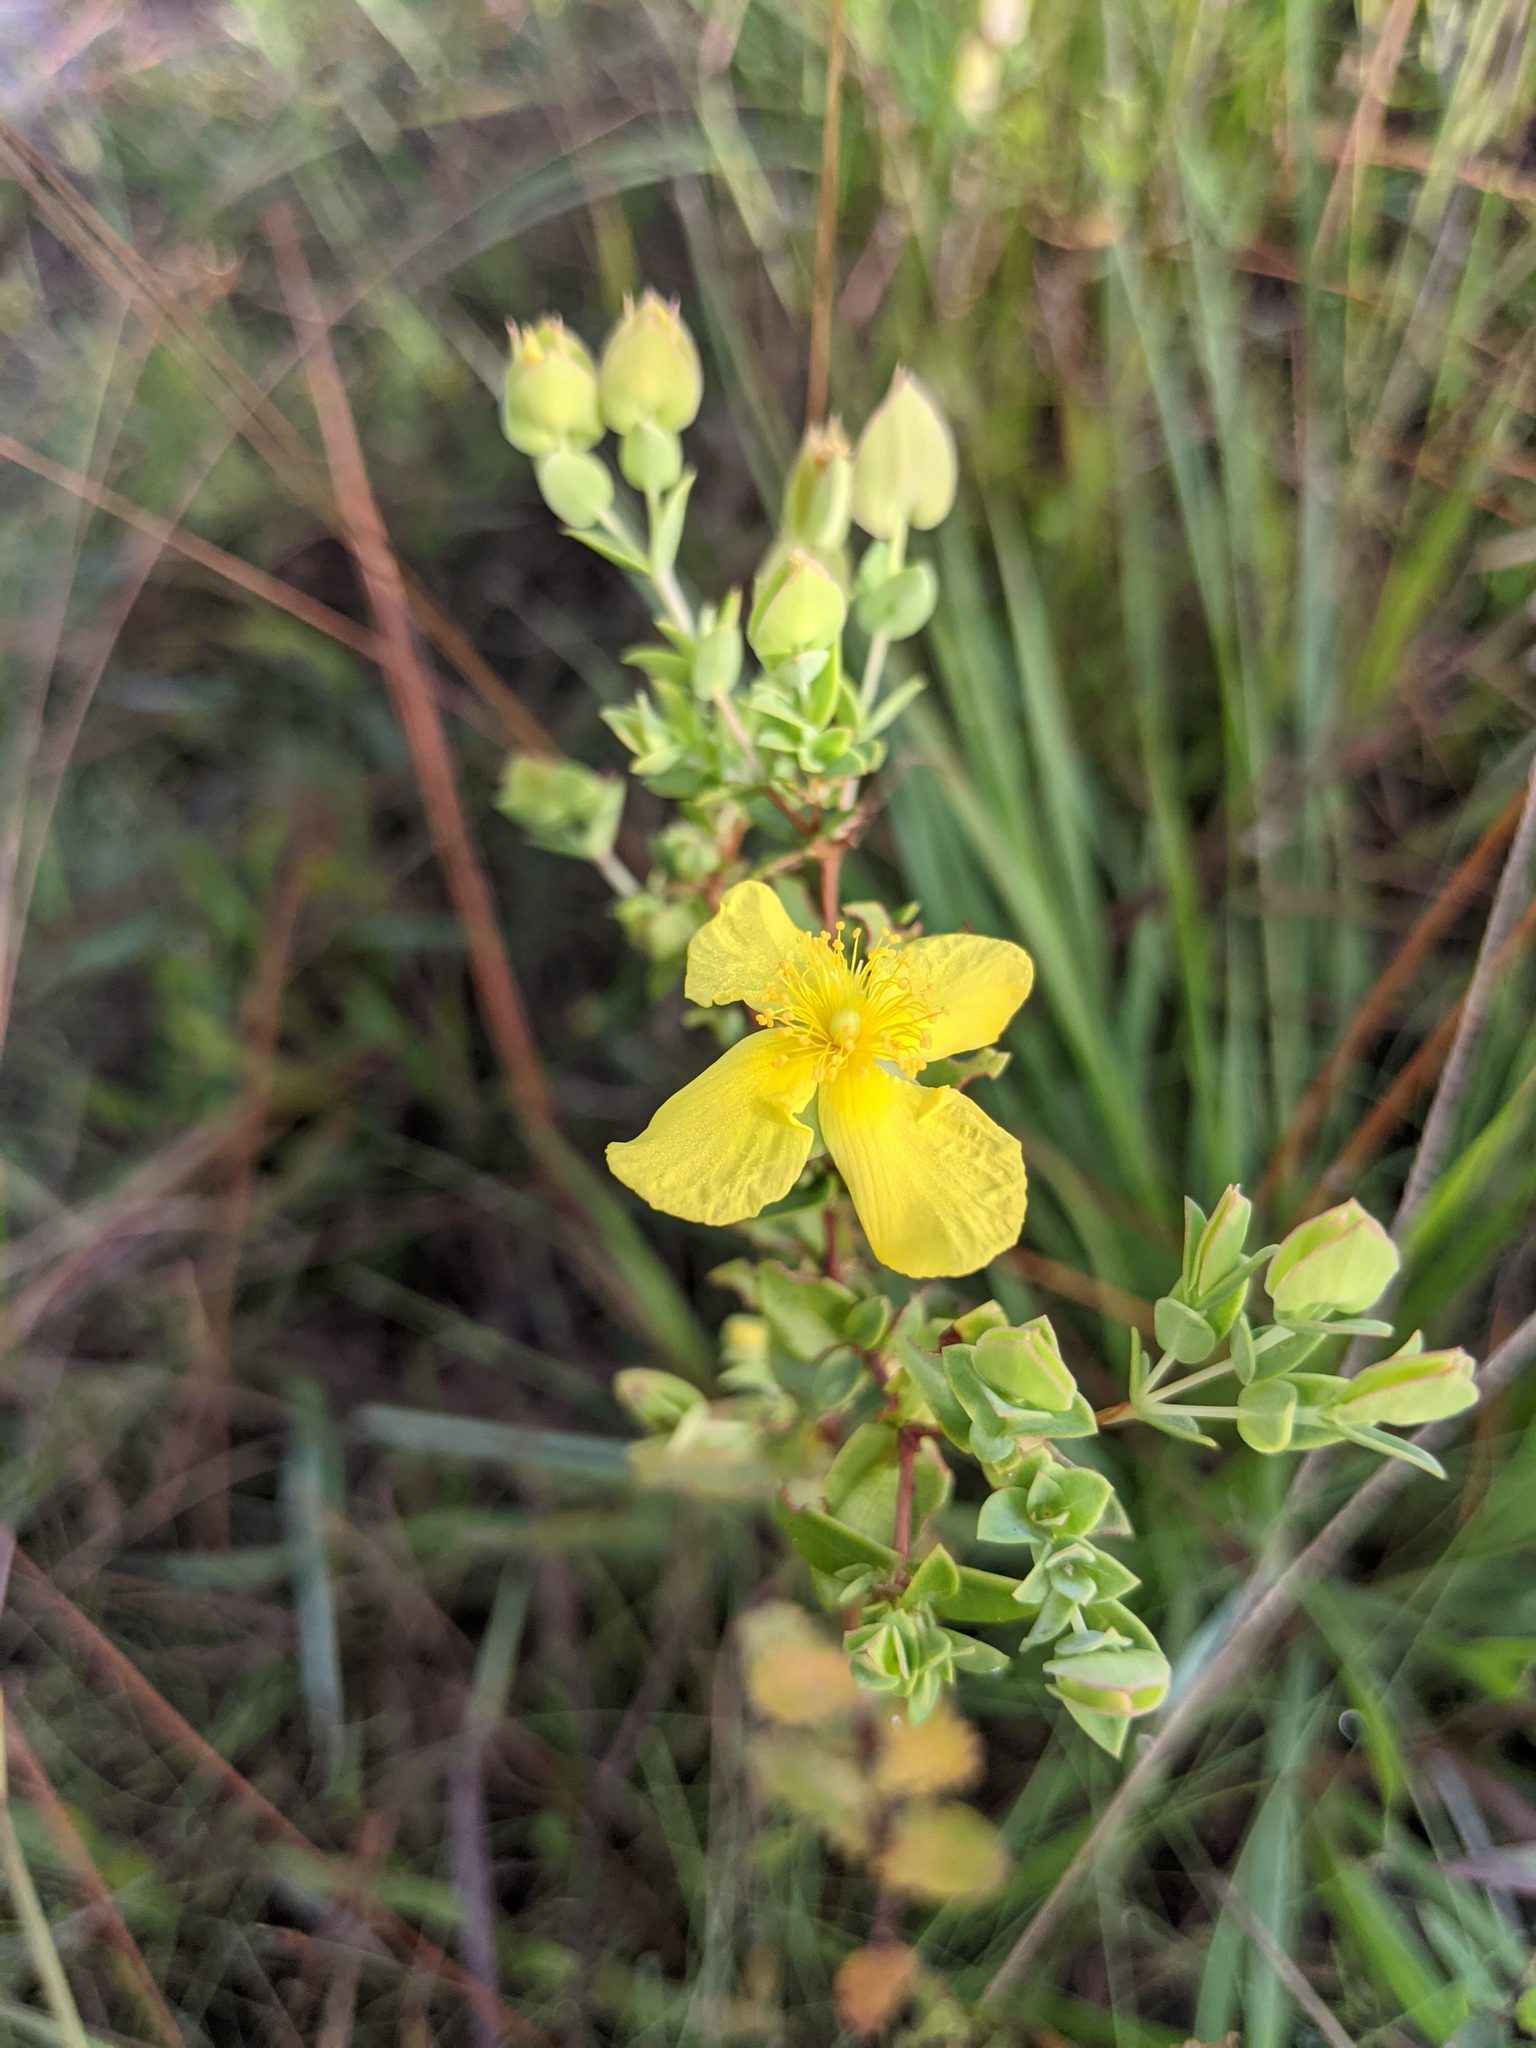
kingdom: Plantae
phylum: Tracheophyta
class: Magnoliopsida
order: Malpighiales
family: Hypericaceae
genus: Hypericum
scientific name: Hypericum tetrapetalum
